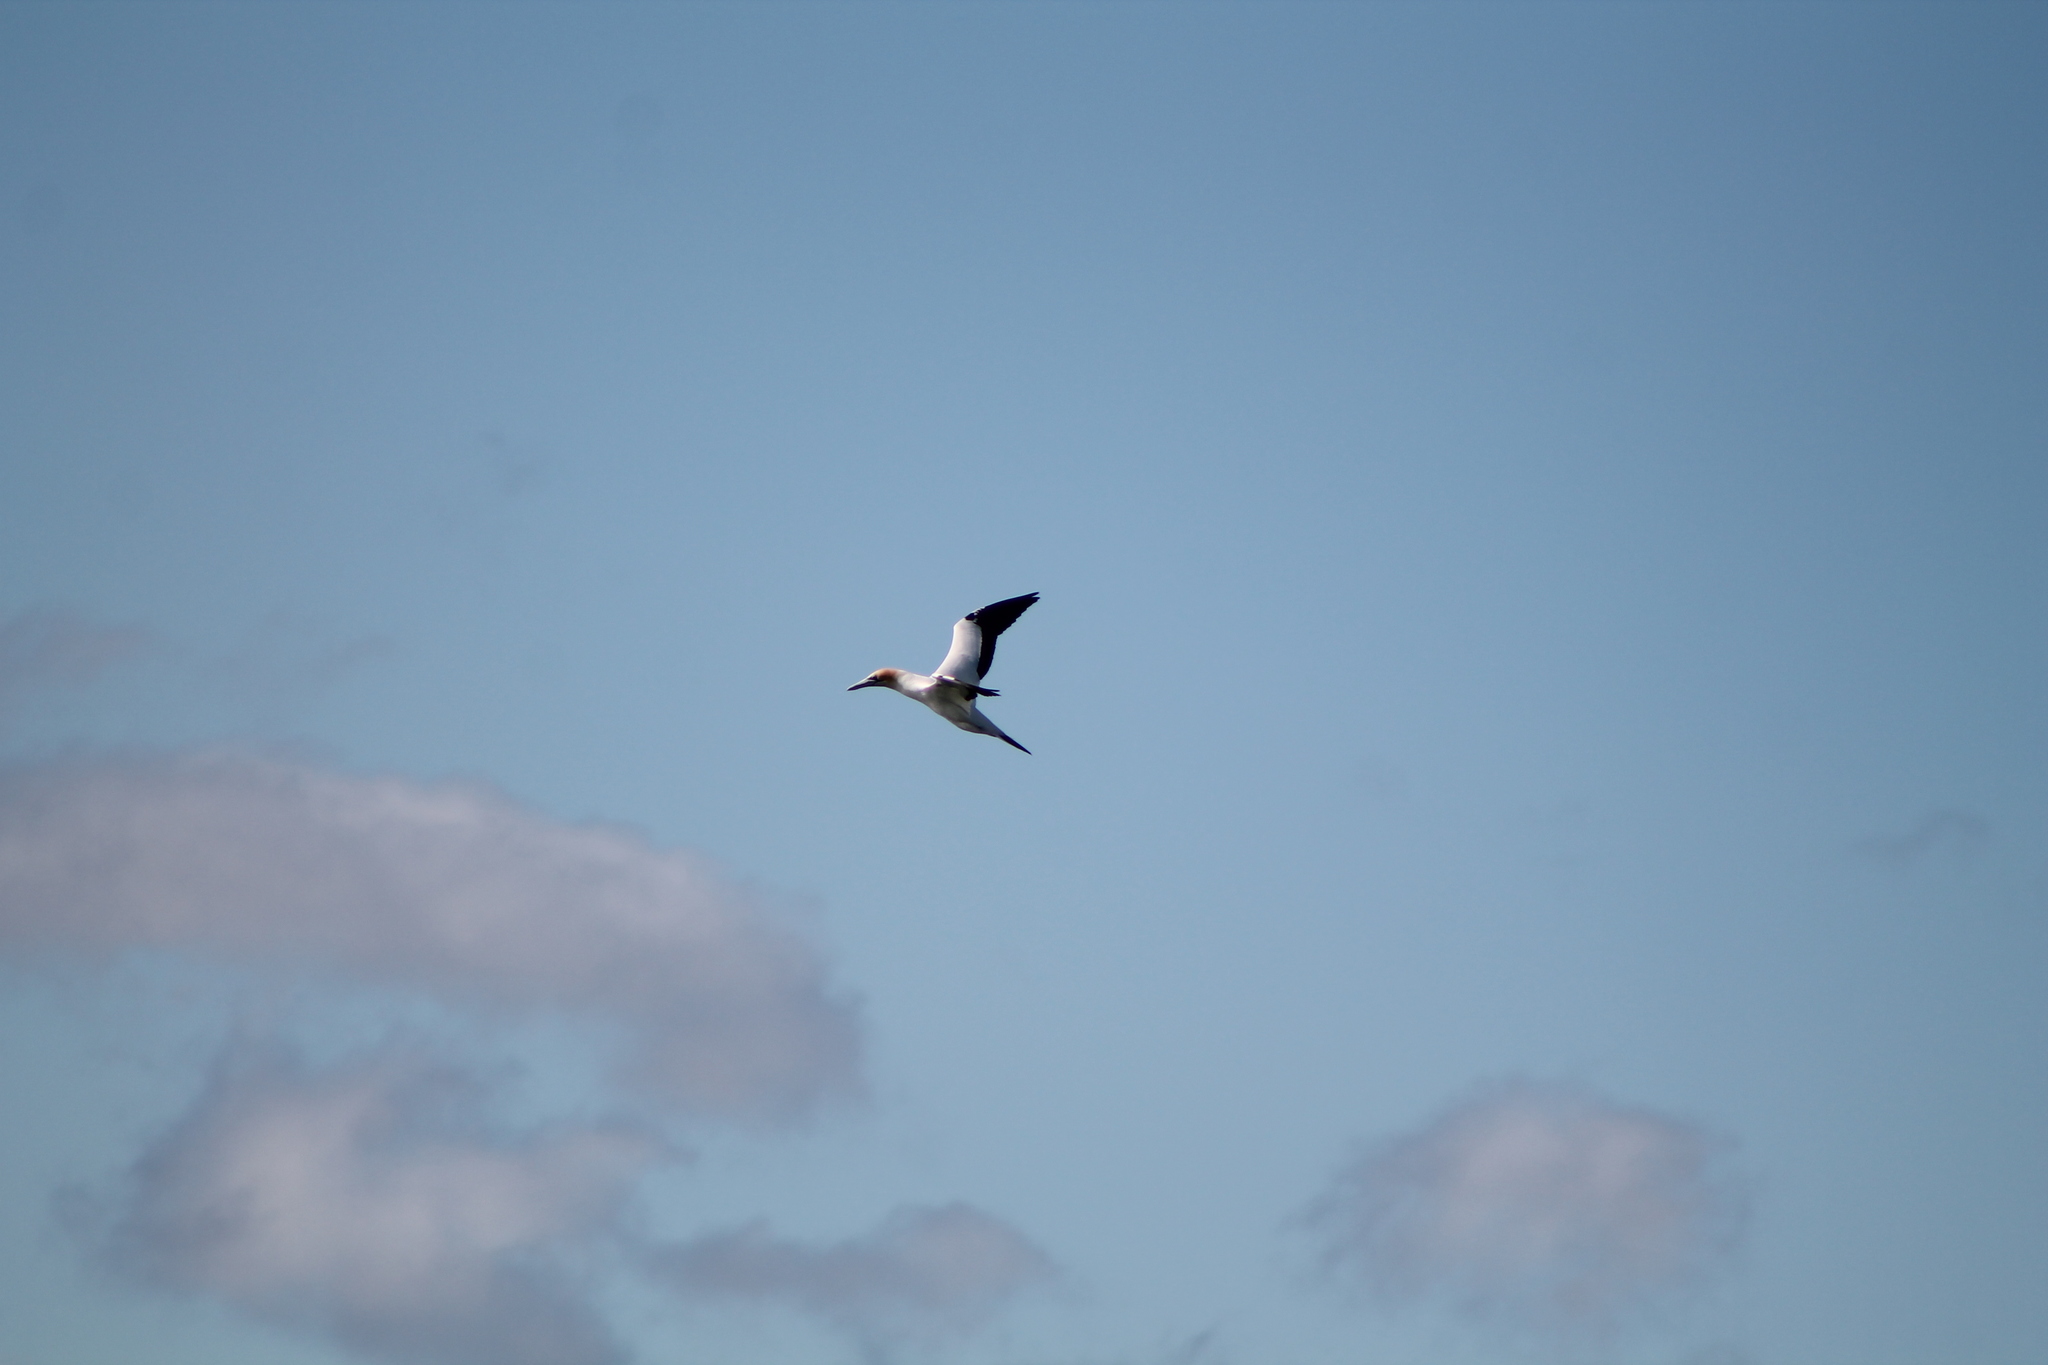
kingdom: Animalia
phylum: Chordata
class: Aves
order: Suliformes
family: Sulidae
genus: Morus
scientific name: Morus serrator
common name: Australasian gannet
